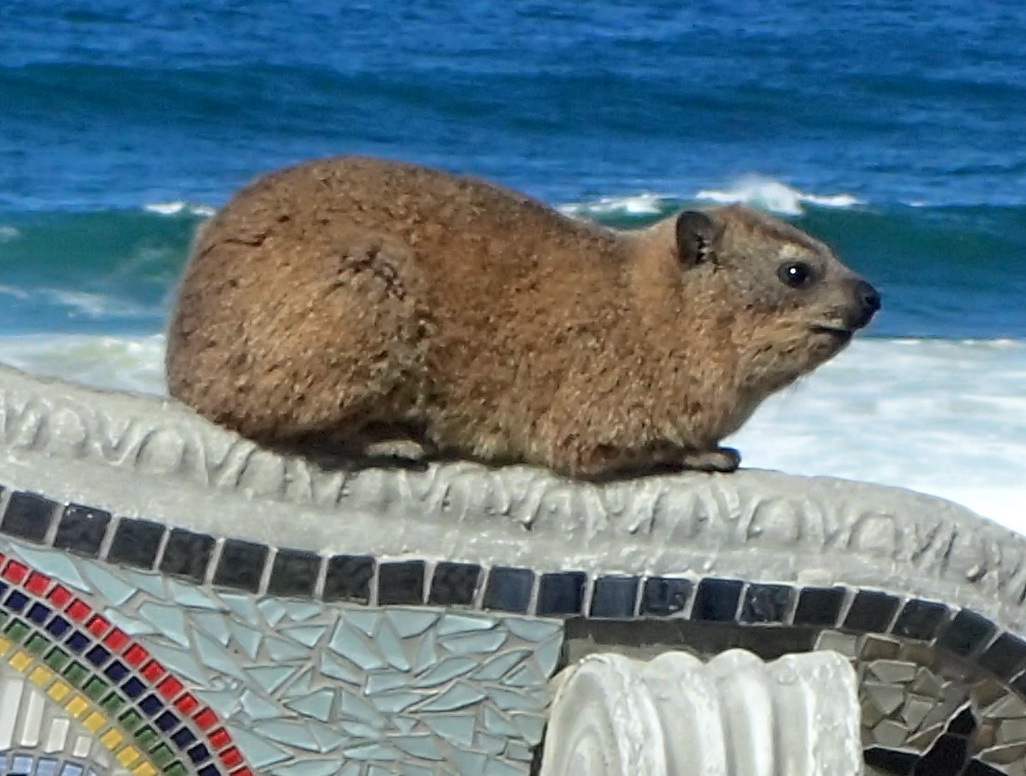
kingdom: Animalia
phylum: Chordata
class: Mammalia
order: Hyracoidea
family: Procaviidae
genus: Procavia
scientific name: Procavia capensis
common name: Rock hyrax
